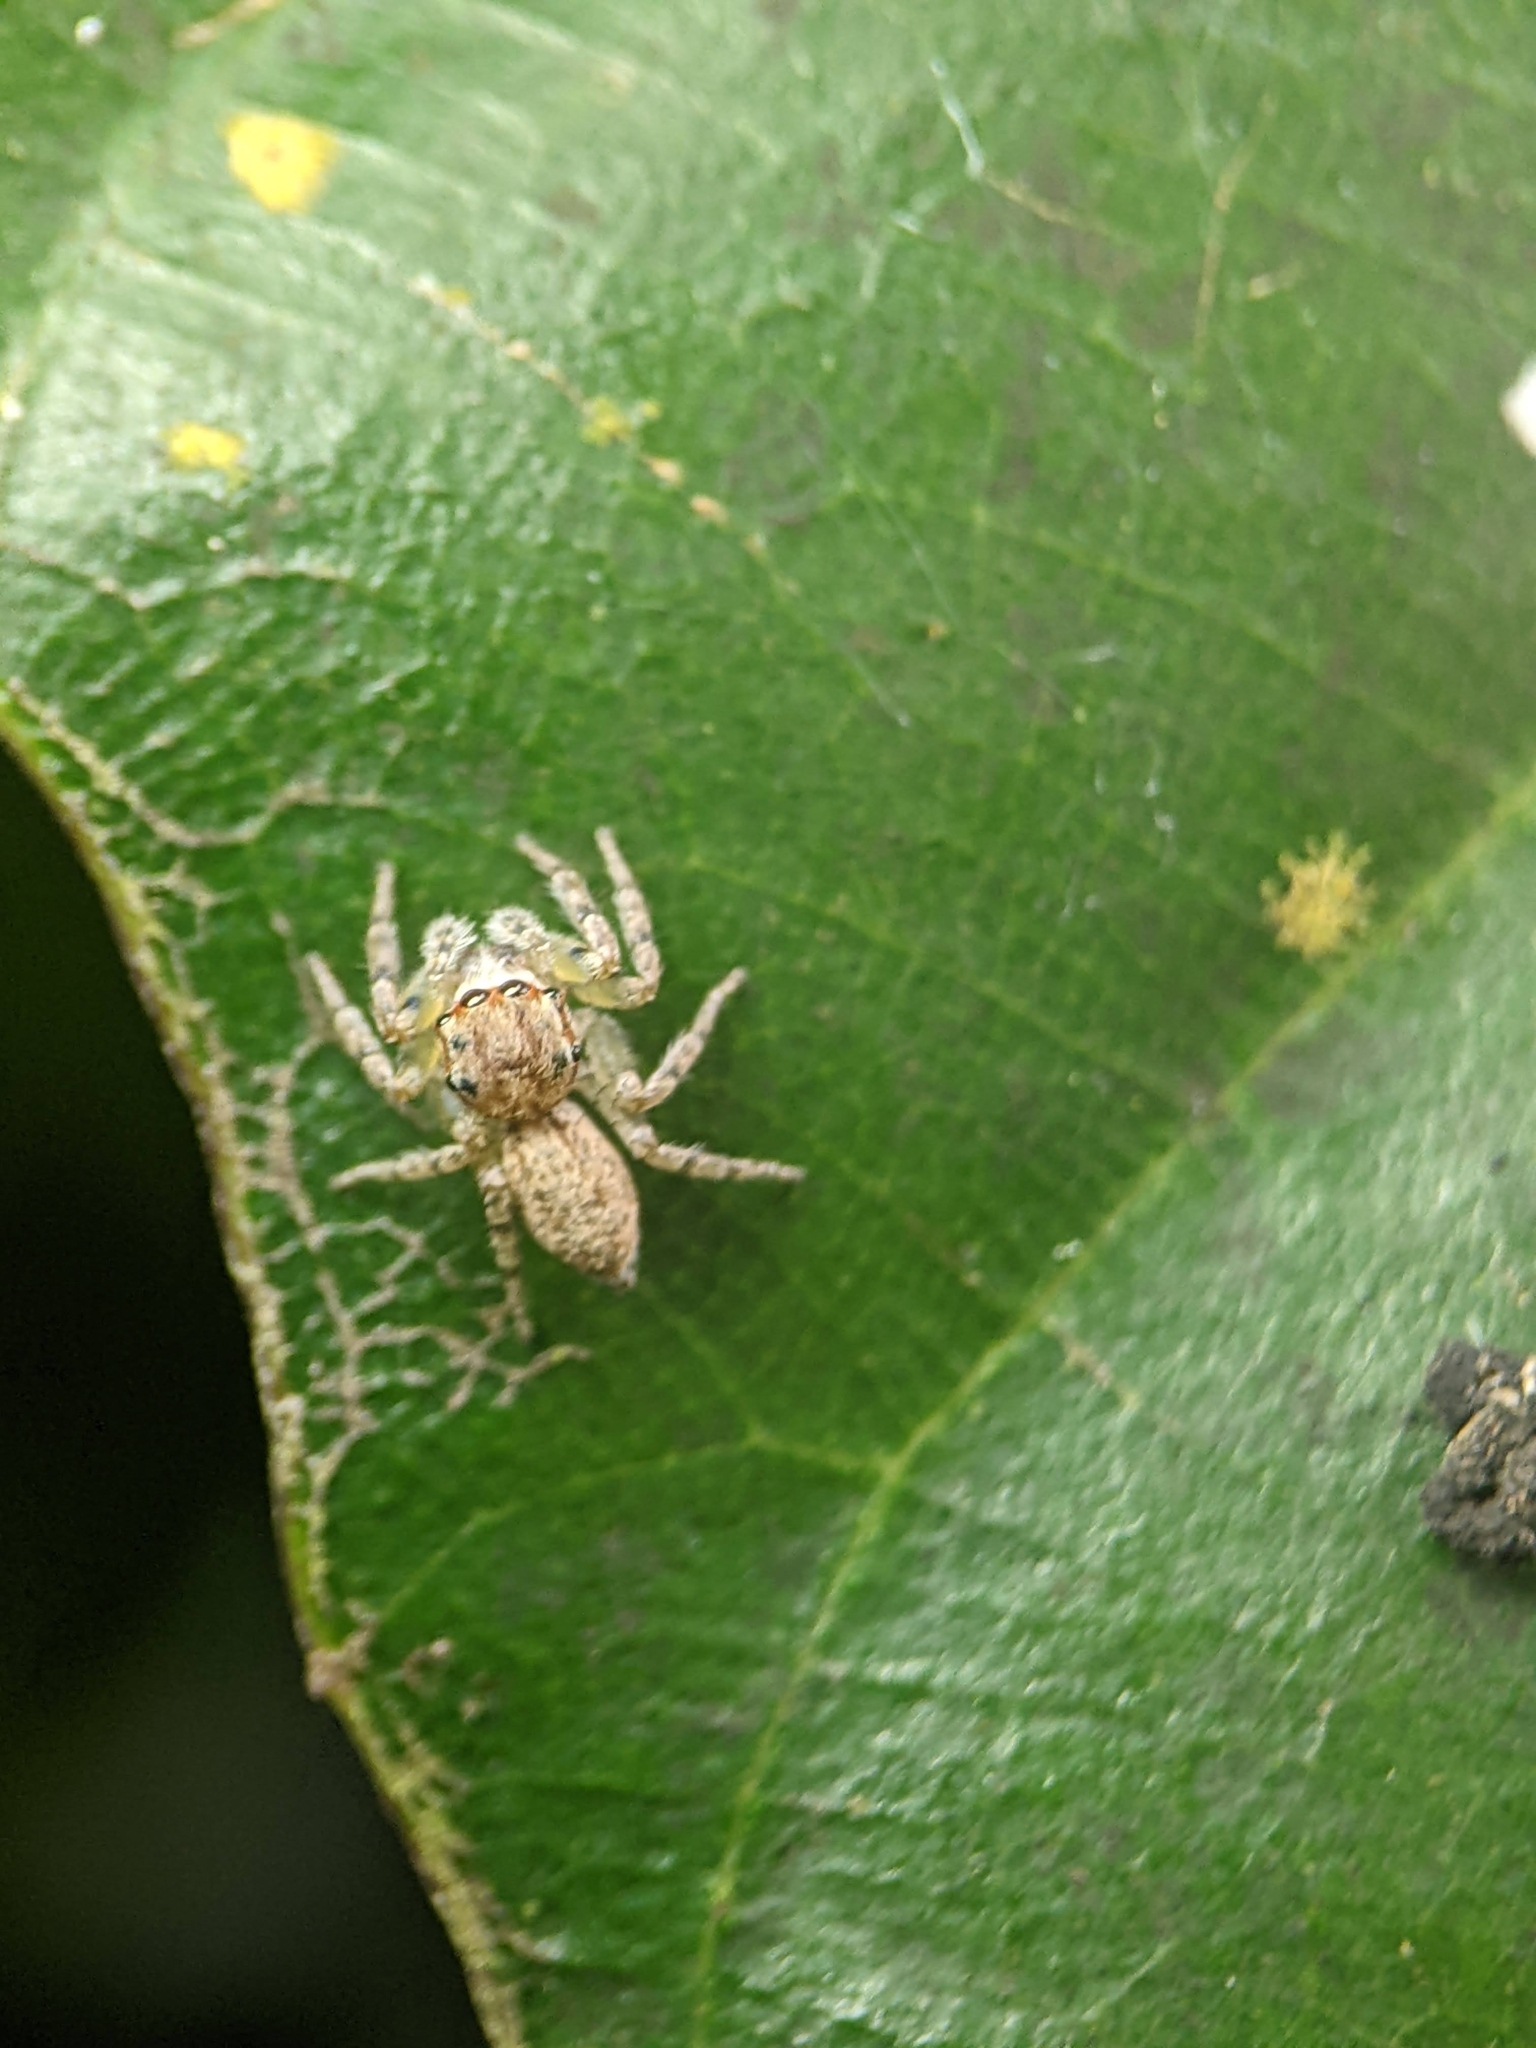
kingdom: Animalia
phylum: Arthropoda
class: Arachnida
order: Araneae
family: Salticidae
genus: Cytaea
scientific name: Cytaea oreophila
